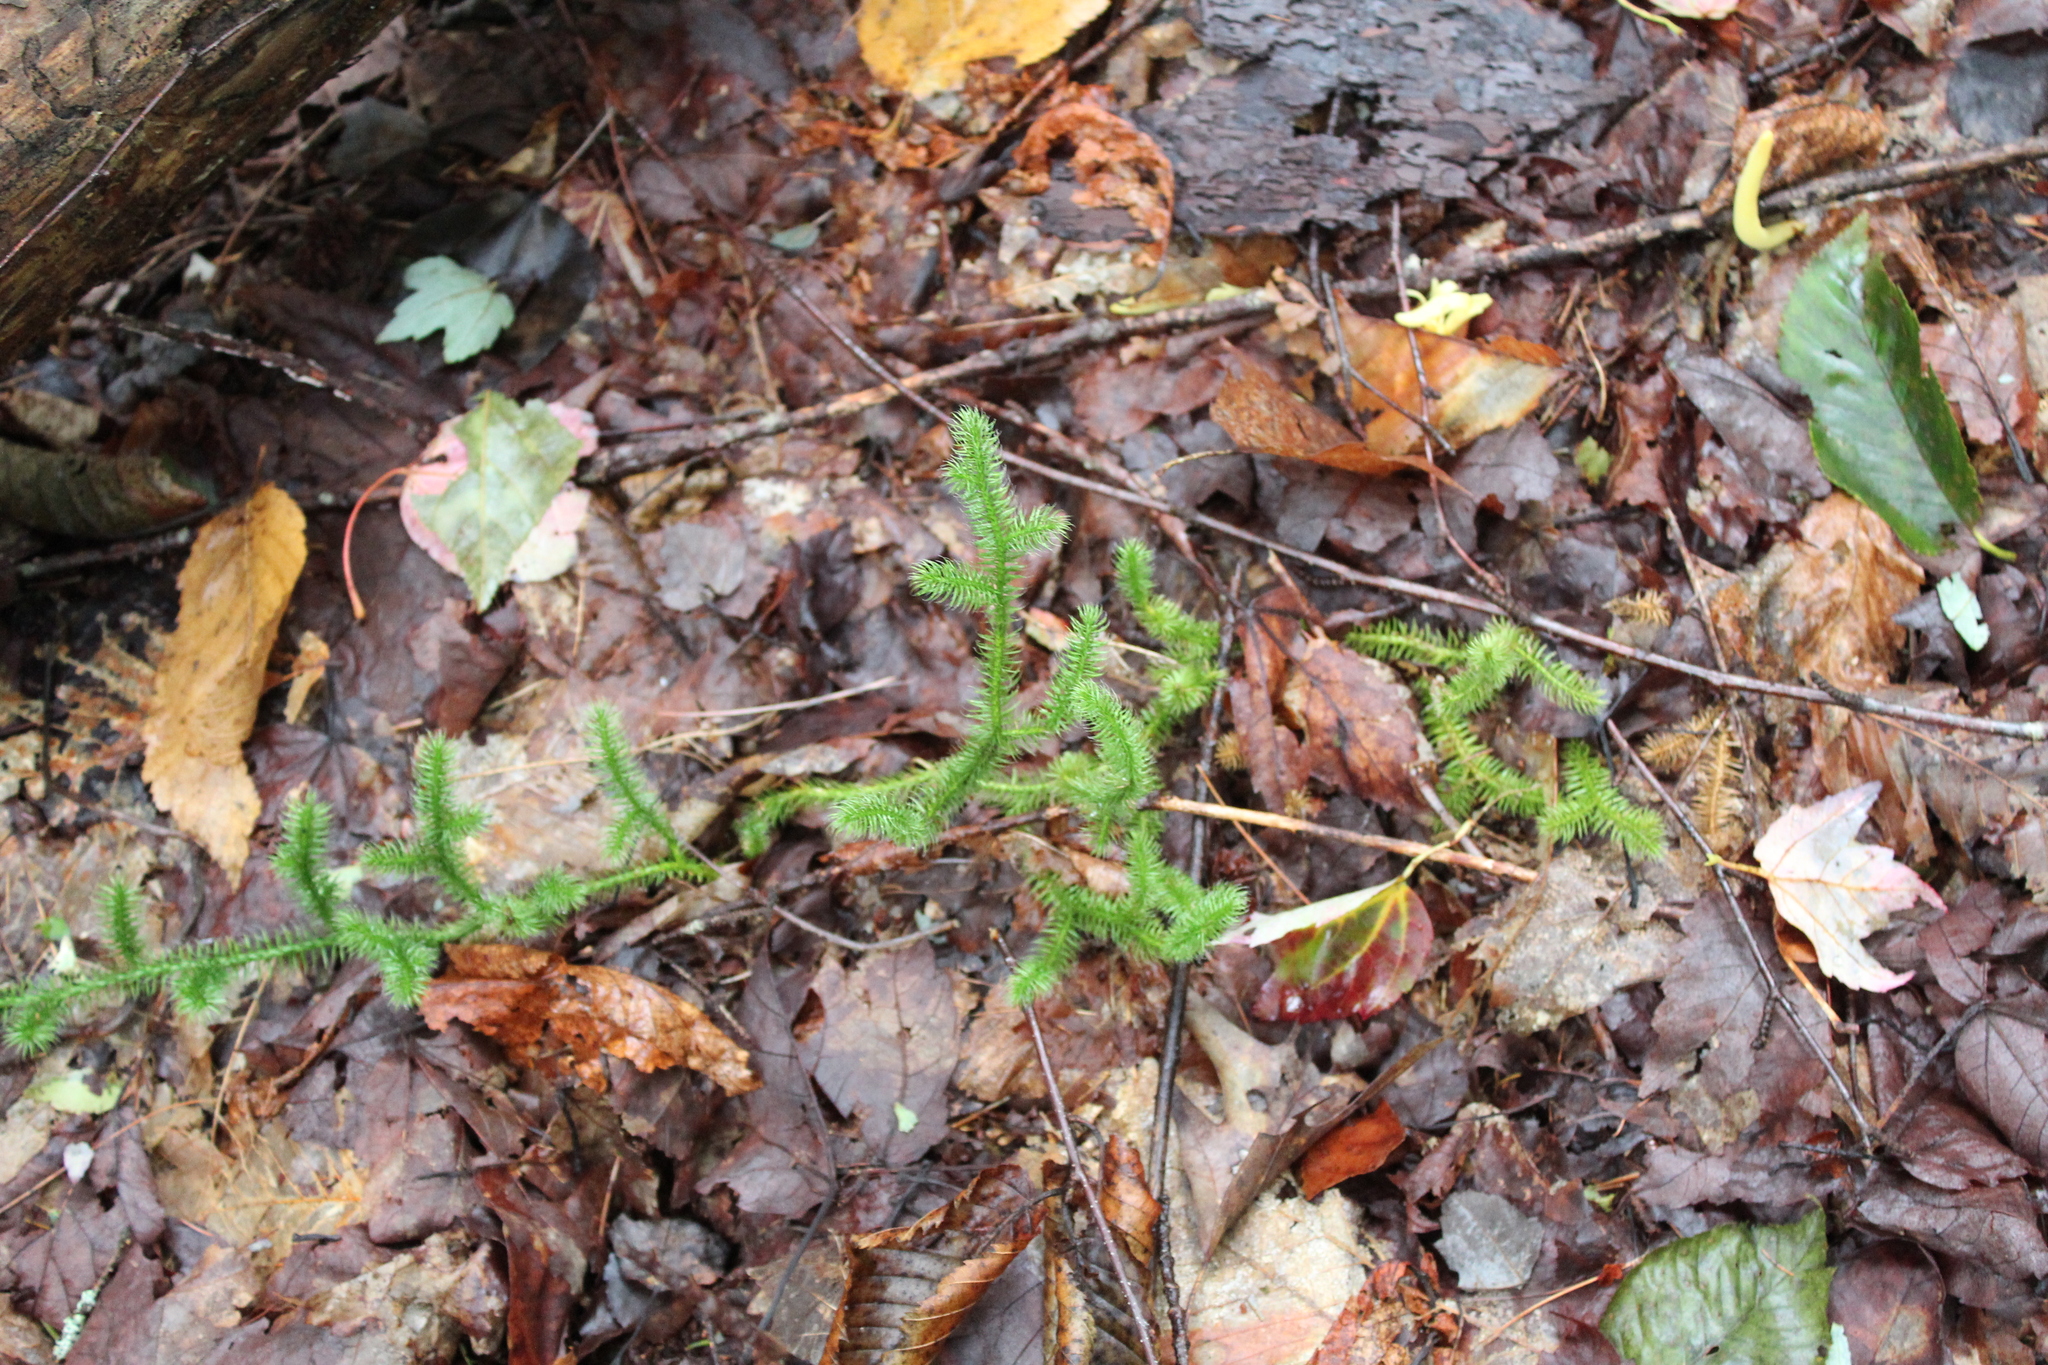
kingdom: Plantae
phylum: Tracheophyta
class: Lycopodiopsida
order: Lycopodiales
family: Lycopodiaceae
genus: Lycopodium
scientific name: Lycopodium clavatum
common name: Stag's-horn clubmoss
